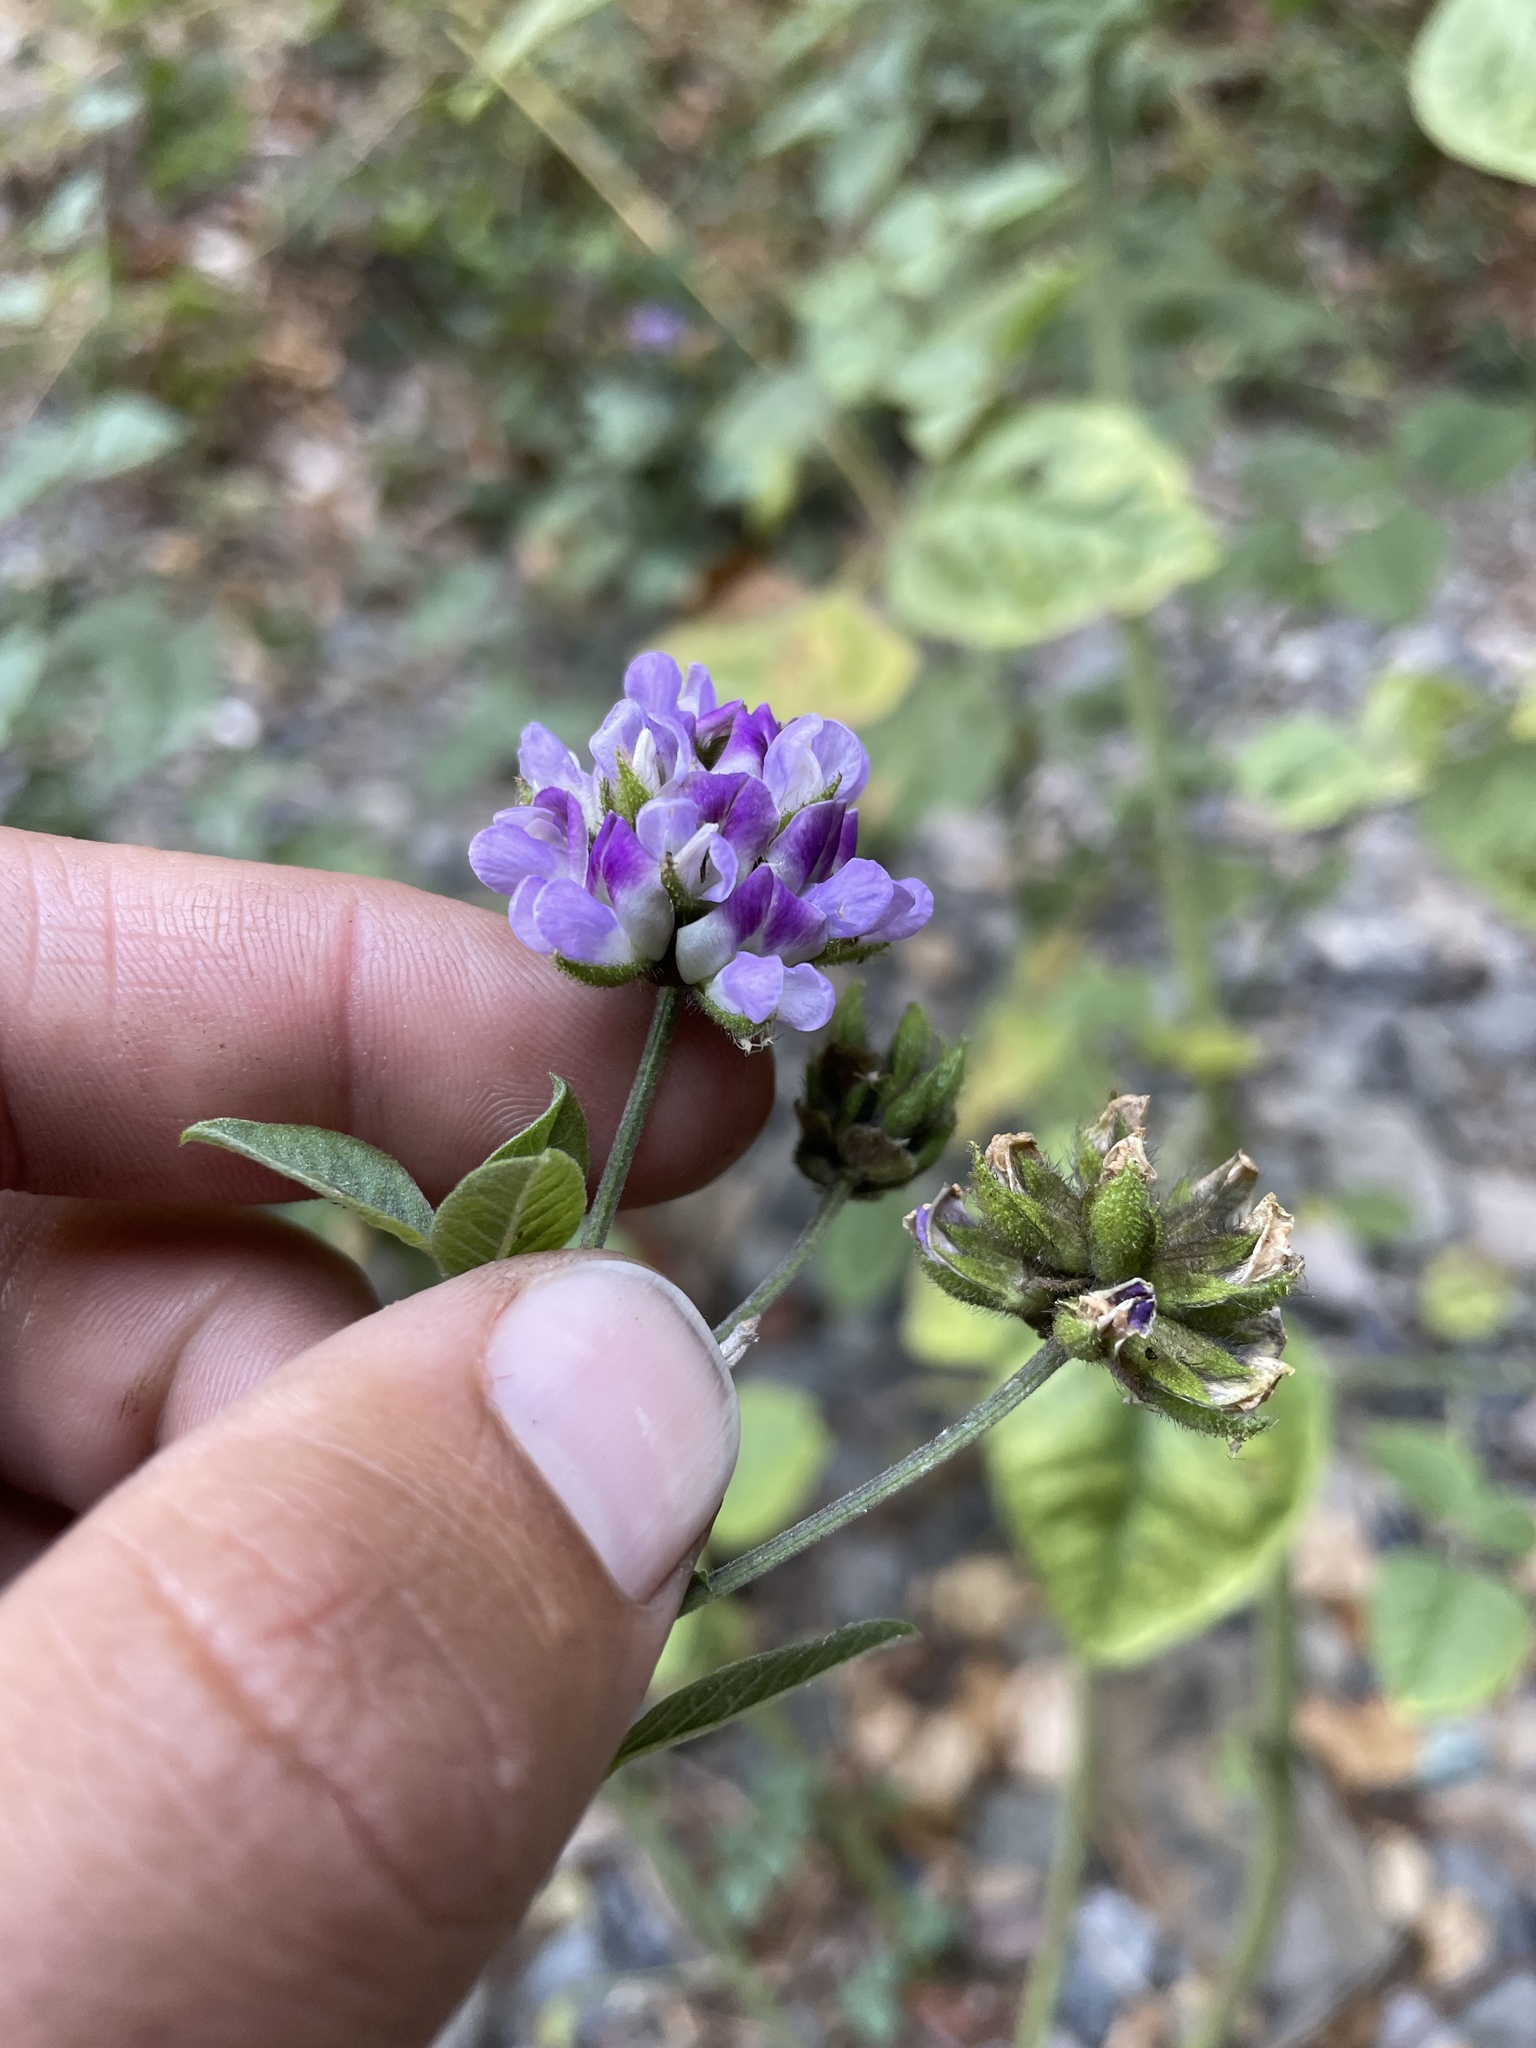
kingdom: Plantae
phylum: Tracheophyta
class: Magnoliopsida
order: Fabales
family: Fabaceae
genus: Hoita
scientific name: Hoita macrostachya
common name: Leatherroot
